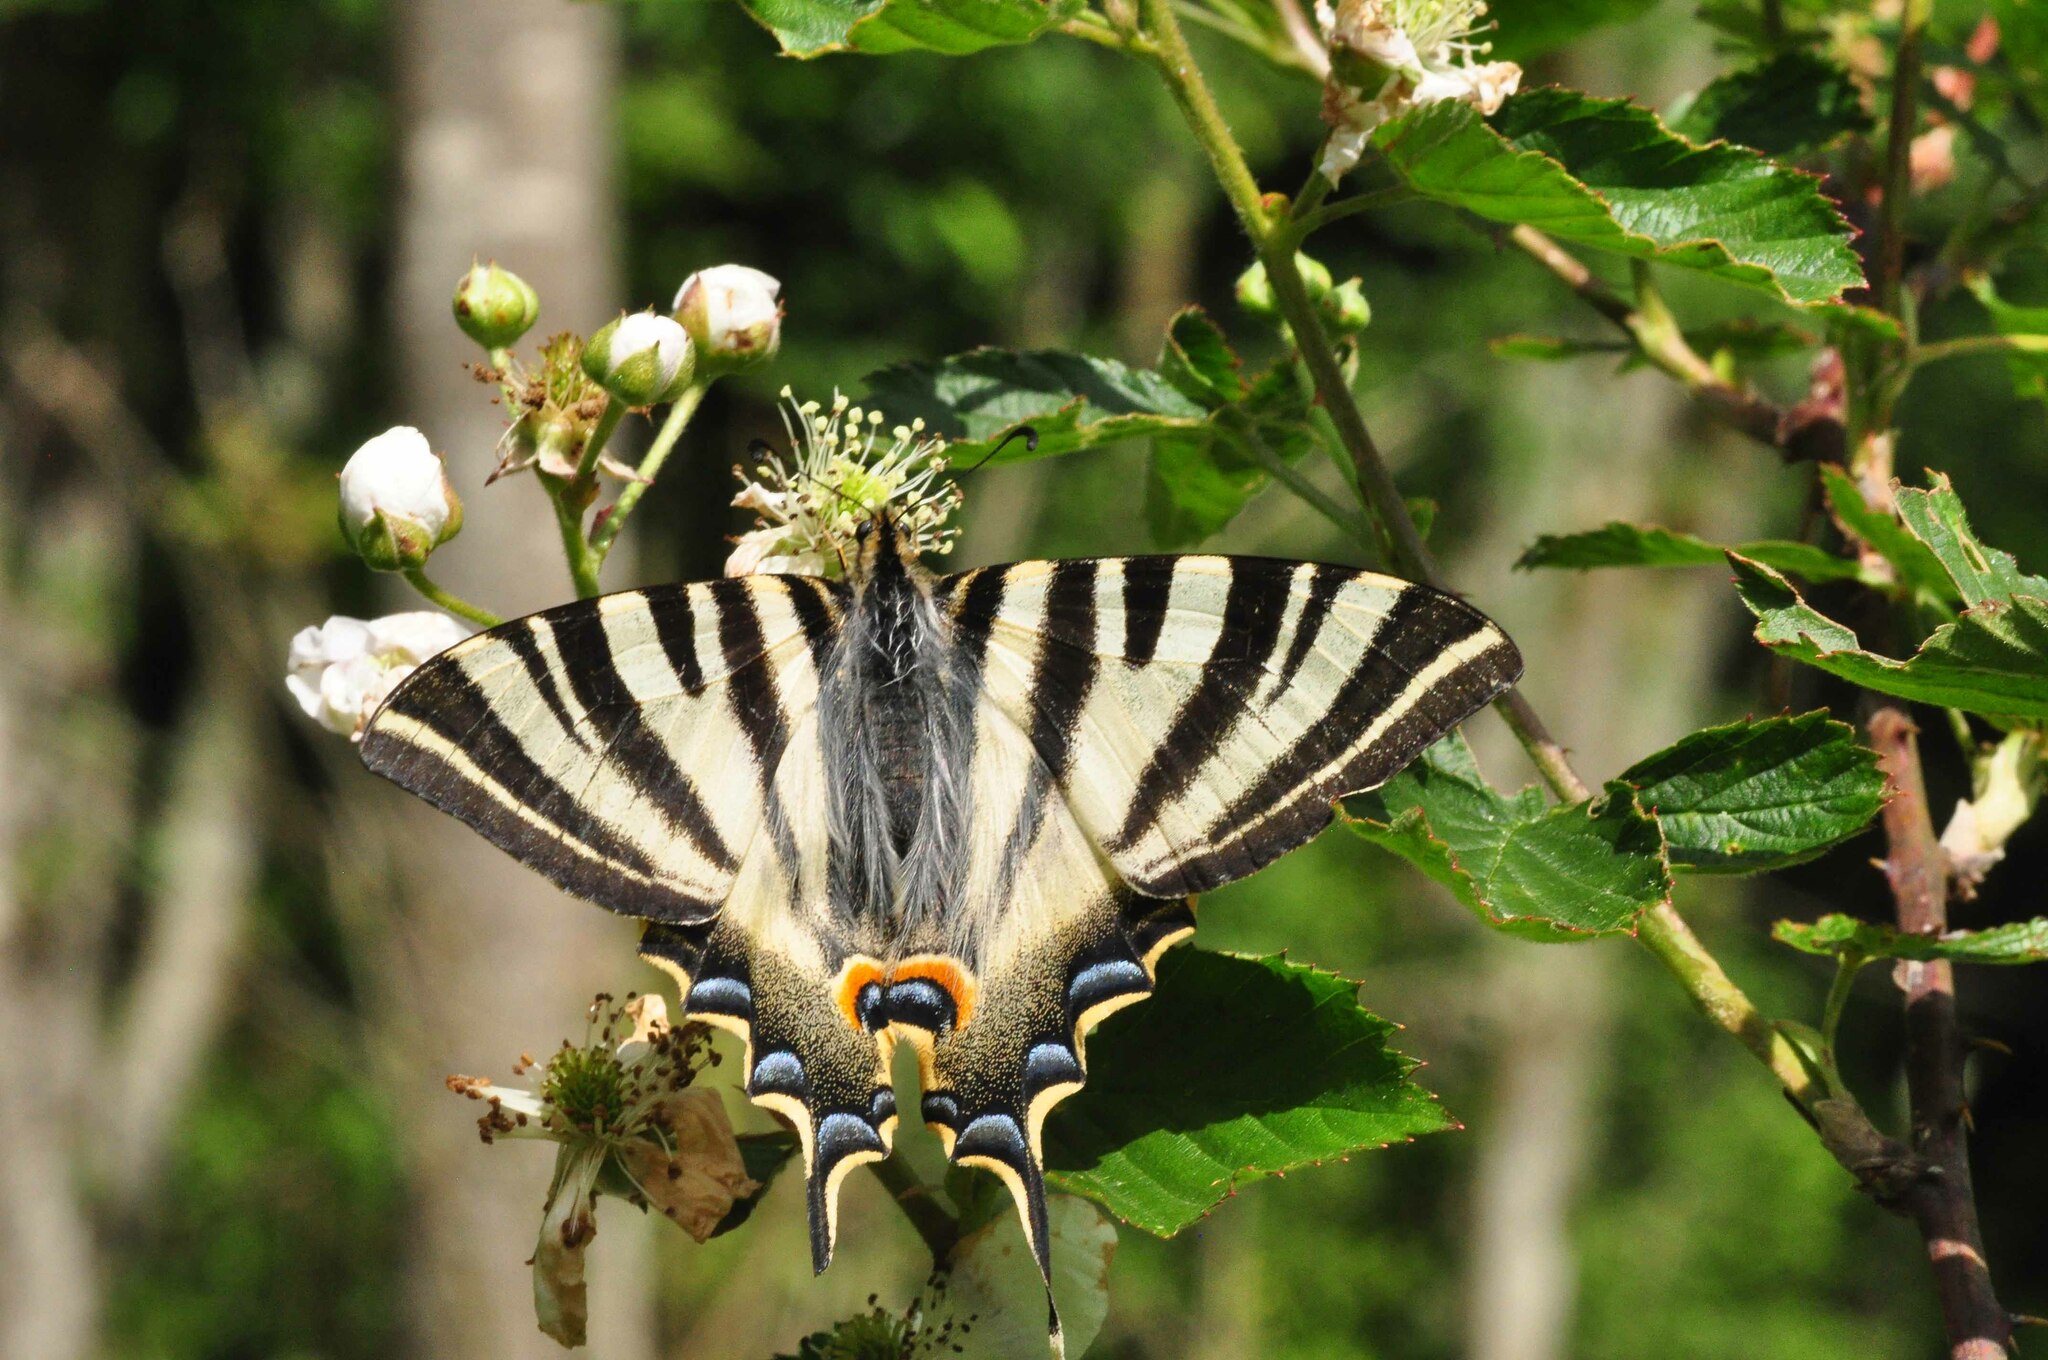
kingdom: Animalia
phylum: Arthropoda
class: Insecta
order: Lepidoptera
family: Papilionidae
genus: Iphiclides
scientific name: Iphiclides feisthamelii
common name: Iberian scarce swallowtail
